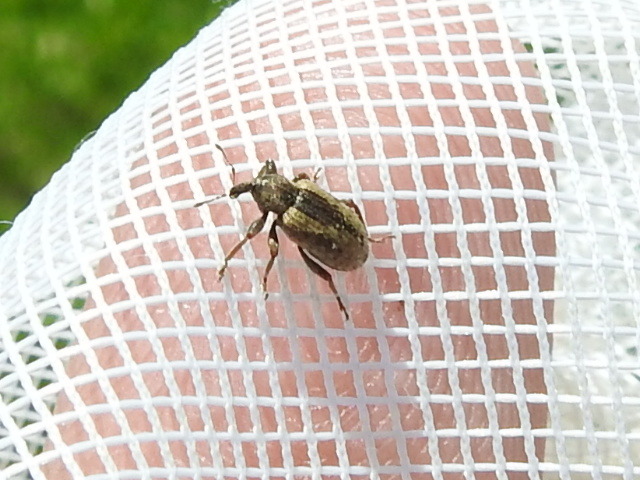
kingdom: Animalia
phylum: Arthropoda
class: Insecta
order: Coleoptera
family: Curculionidae
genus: Hypera
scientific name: Hypera postica
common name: Weevil
